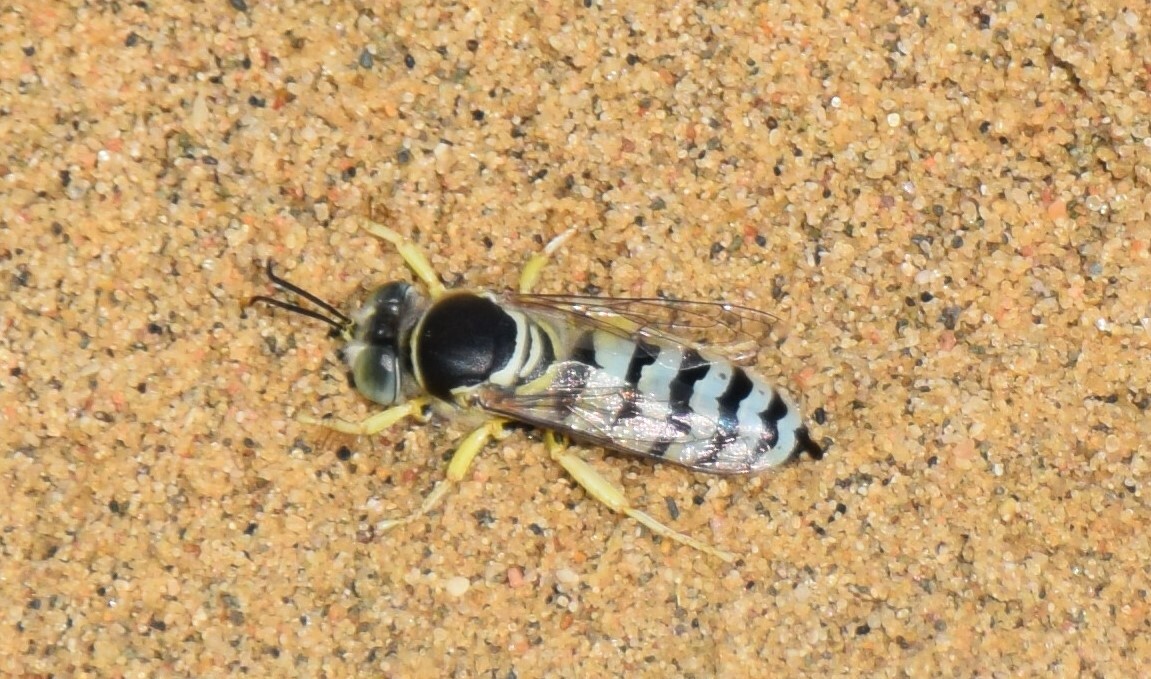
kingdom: Animalia
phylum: Arthropoda
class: Insecta
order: Hymenoptera
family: Crabronidae
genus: Bembix
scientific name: Bembix americana
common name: American sand wasp
